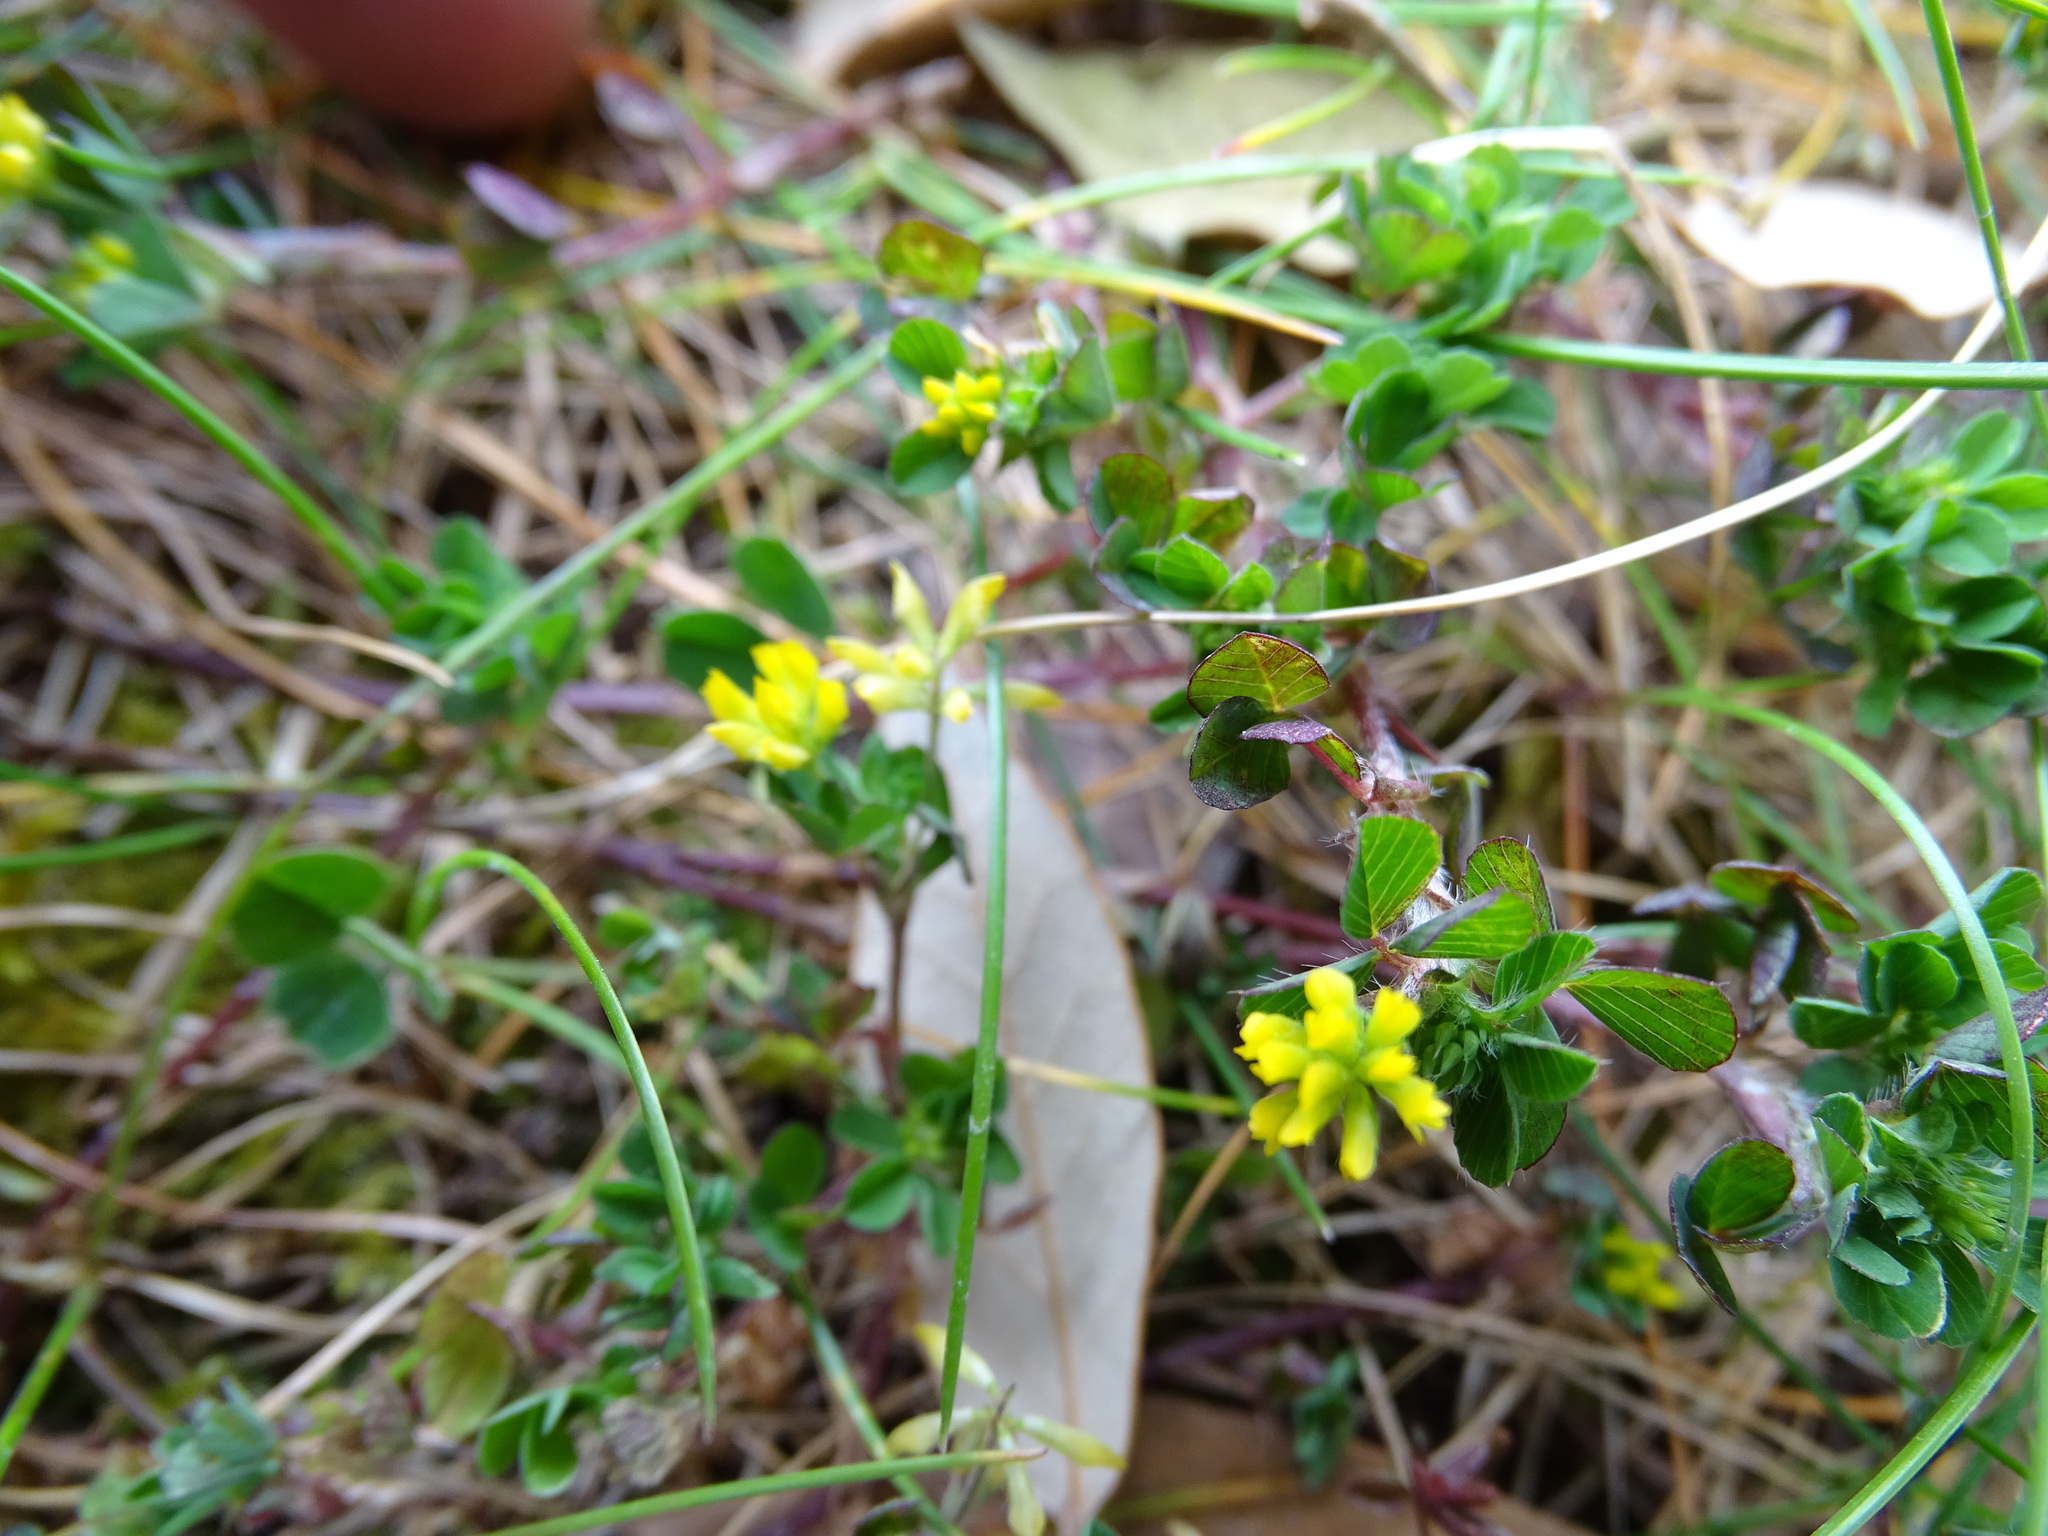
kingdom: Plantae
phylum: Tracheophyta
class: Magnoliopsida
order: Fabales
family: Fabaceae
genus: Trifolium
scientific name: Trifolium dubium
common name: Suckling clover
